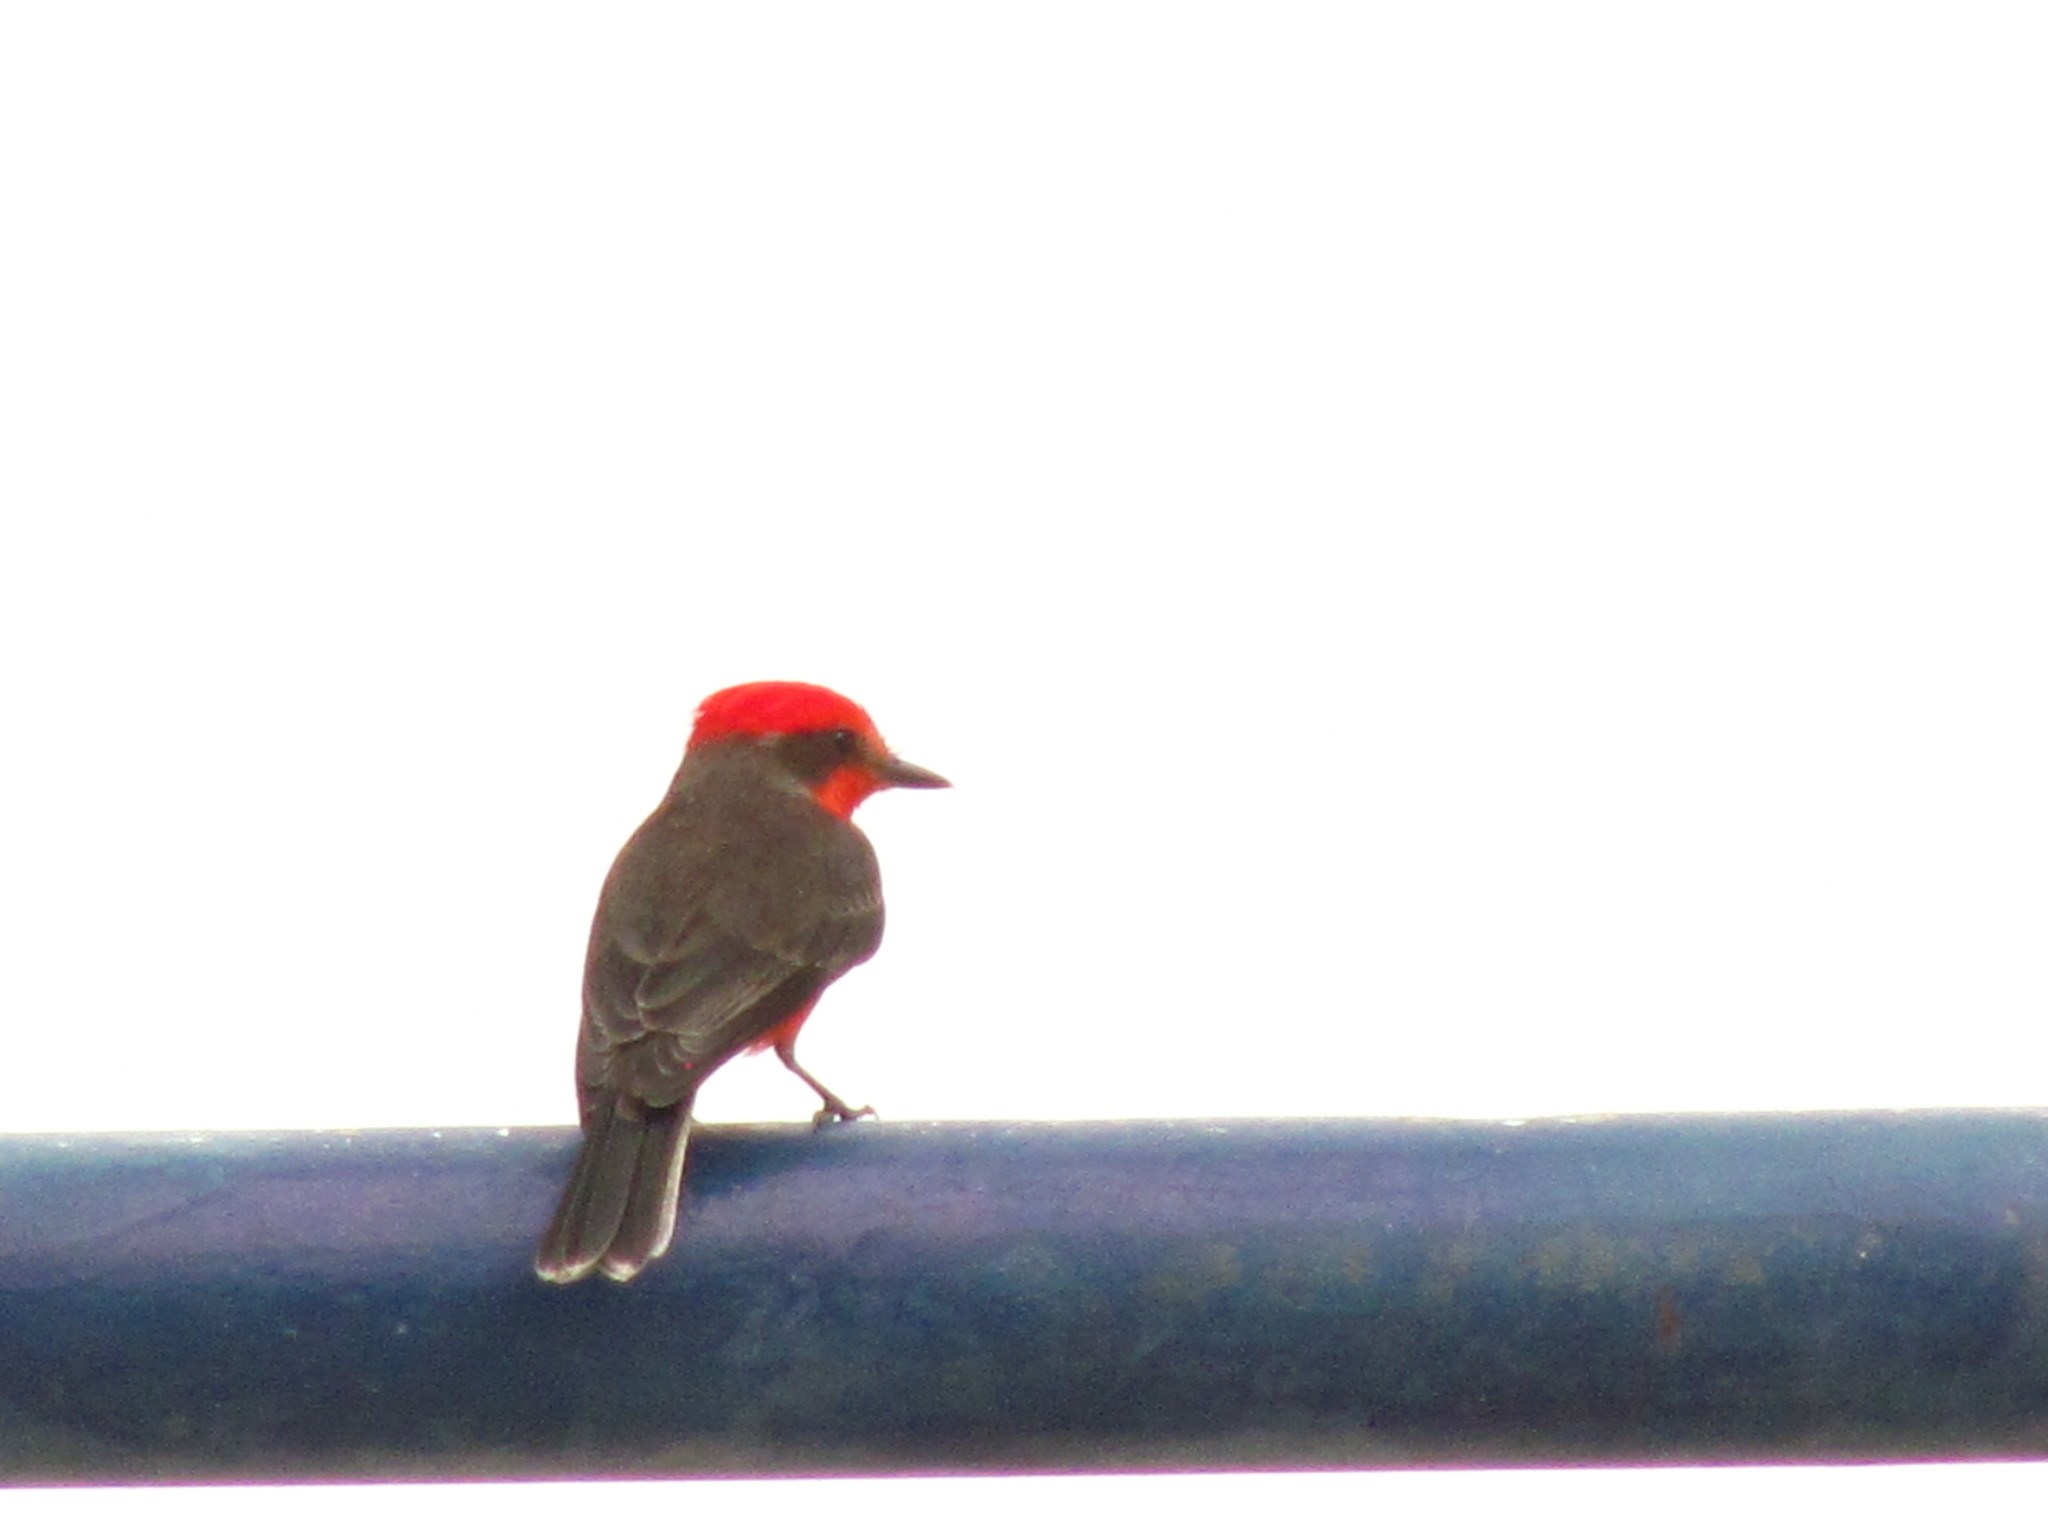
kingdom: Animalia
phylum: Chordata
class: Aves
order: Passeriformes
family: Tyrannidae
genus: Pyrocephalus
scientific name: Pyrocephalus rubinus
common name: Vermilion flycatcher
